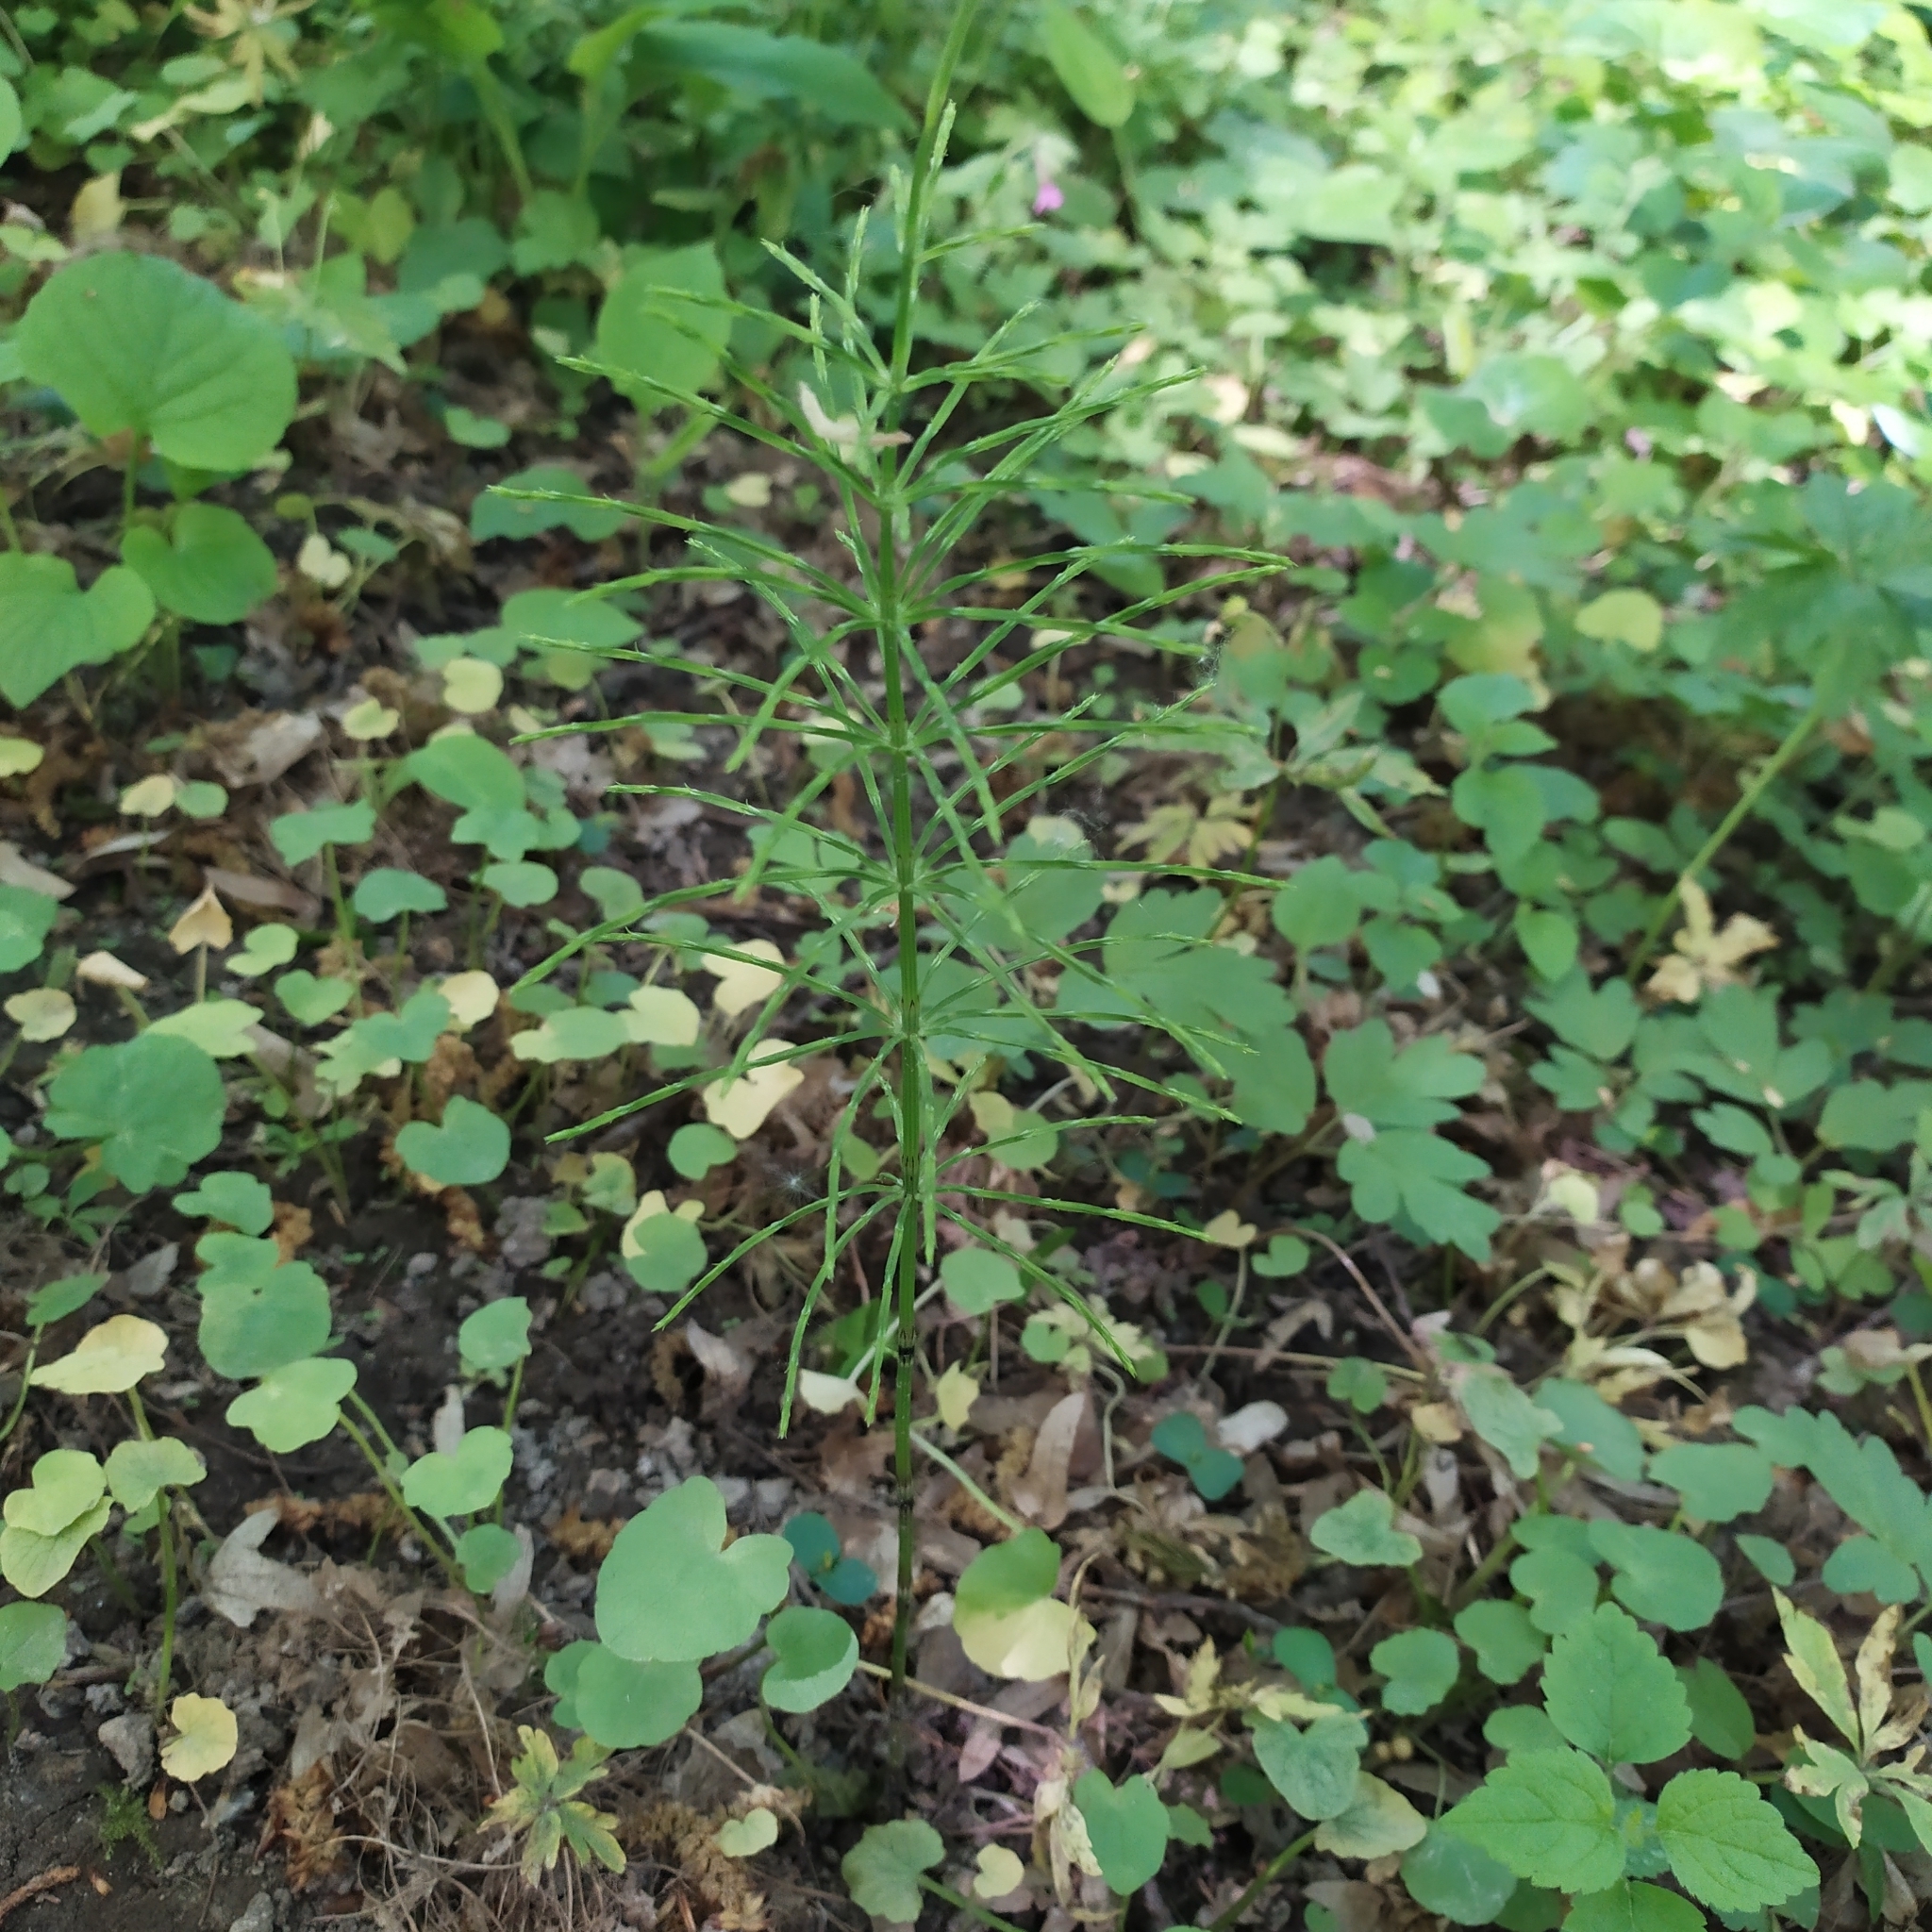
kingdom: Plantae
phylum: Tracheophyta
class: Polypodiopsida
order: Equisetales
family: Equisetaceae
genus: Equisetum
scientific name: Equisetum arvense
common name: Field horsetail
